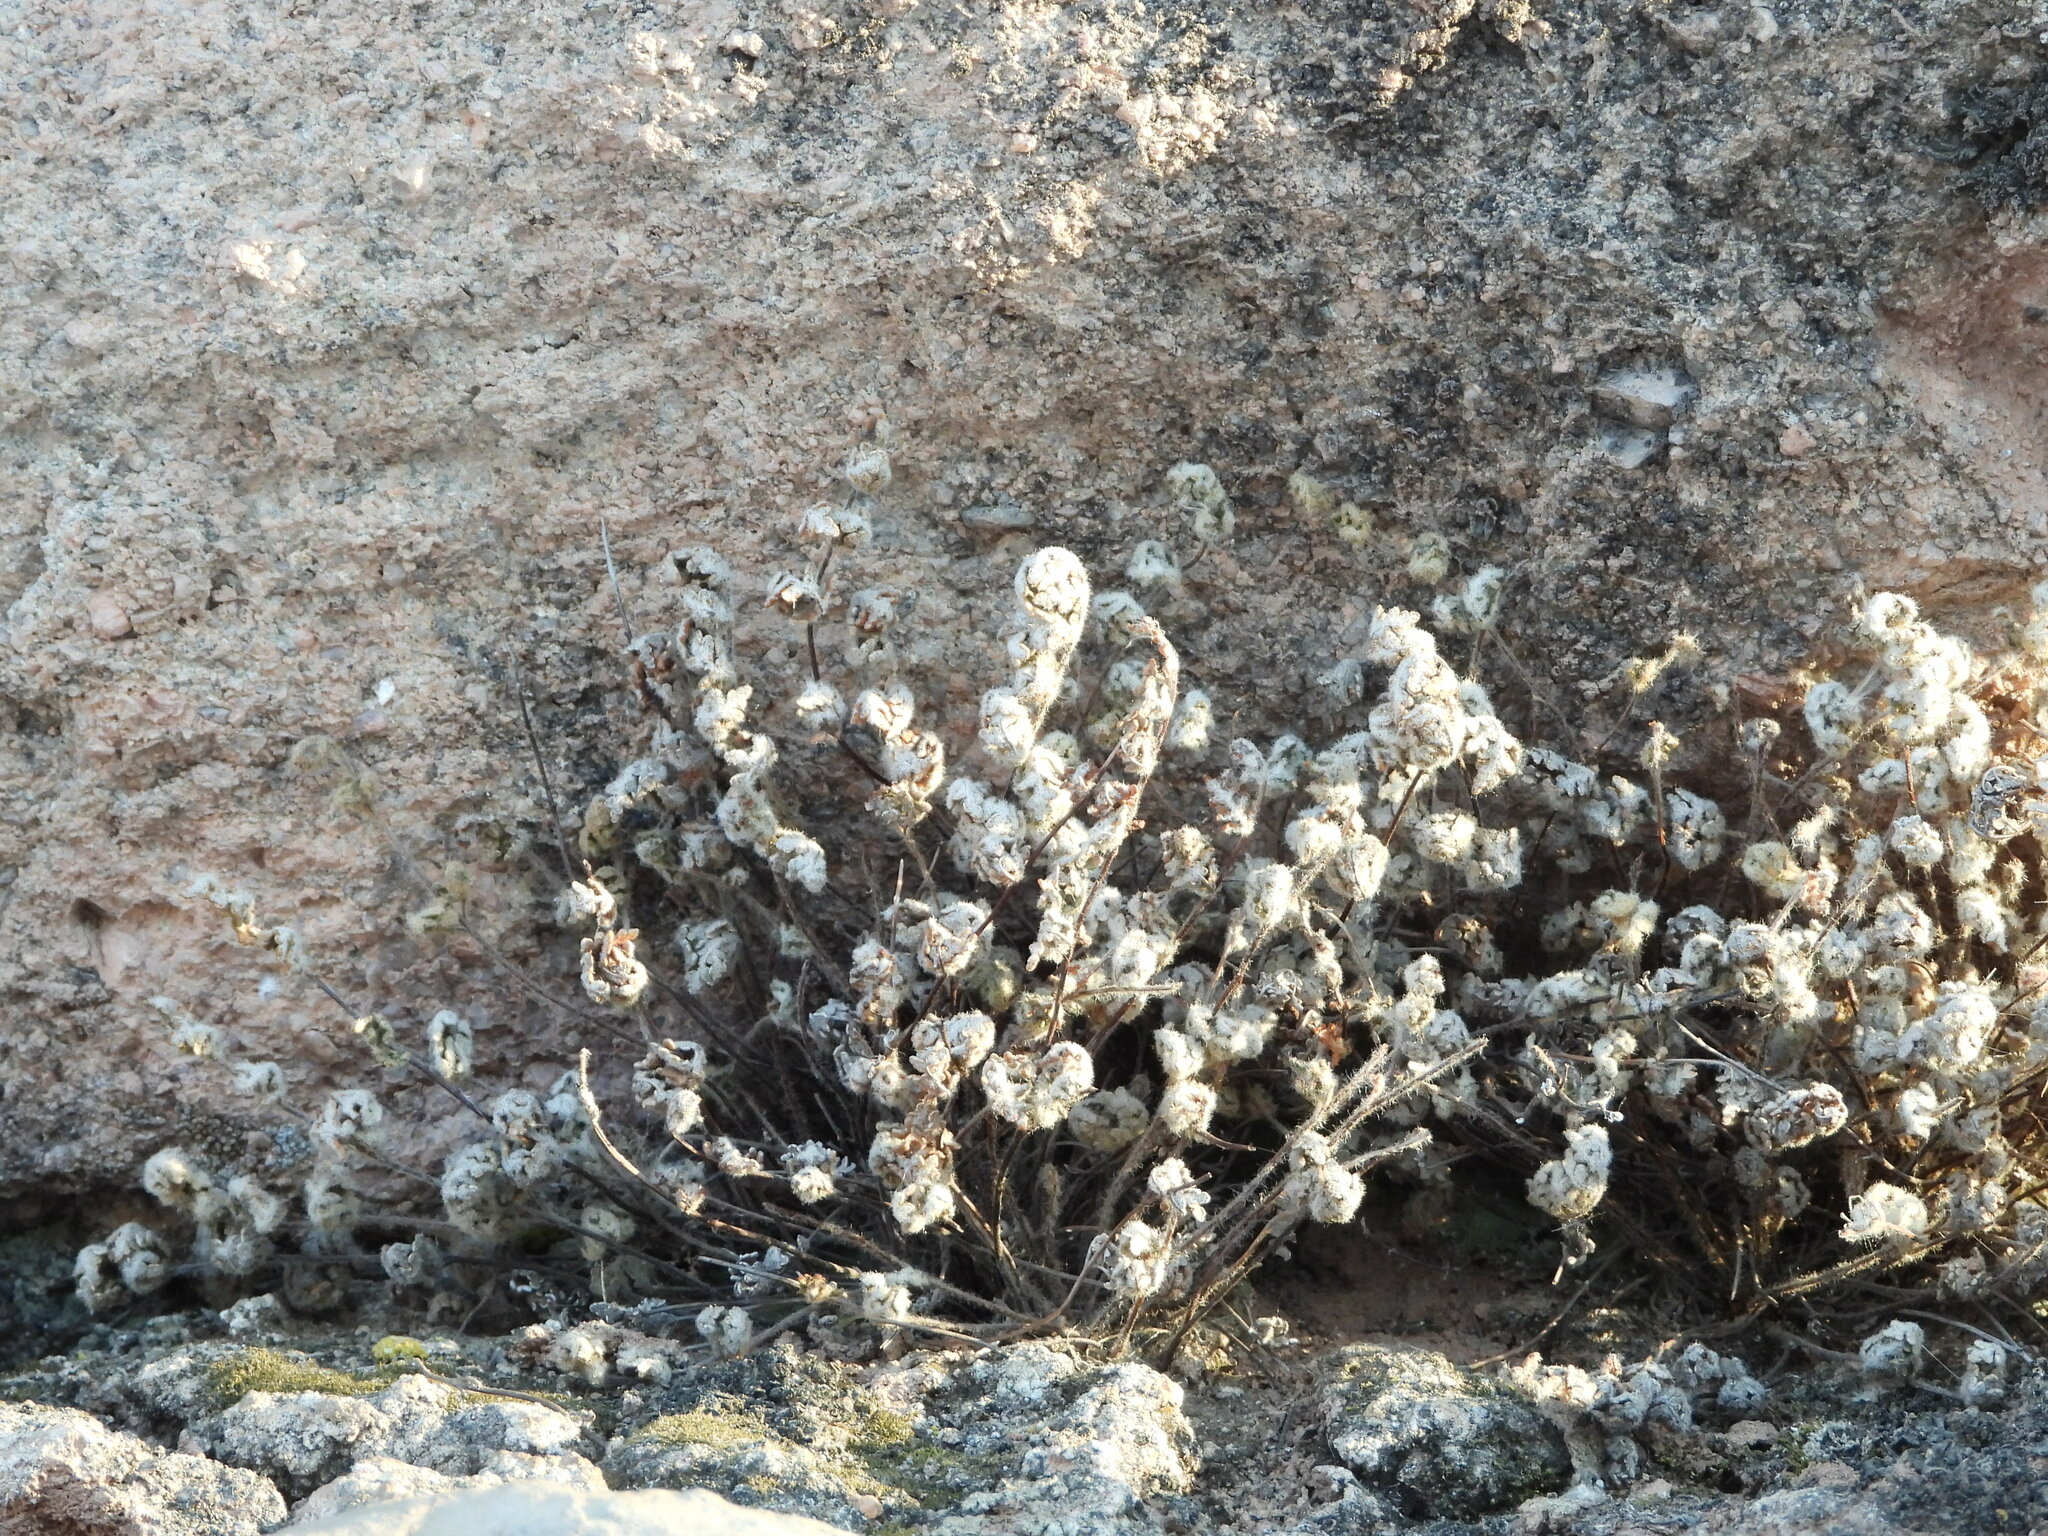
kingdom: Plantae
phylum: Tracheophyta
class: Polypodiopsida
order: Polypodiales
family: Pteridaceae
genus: Myriopteris
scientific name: Myriopteris gracilis
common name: Fee's lip fern
